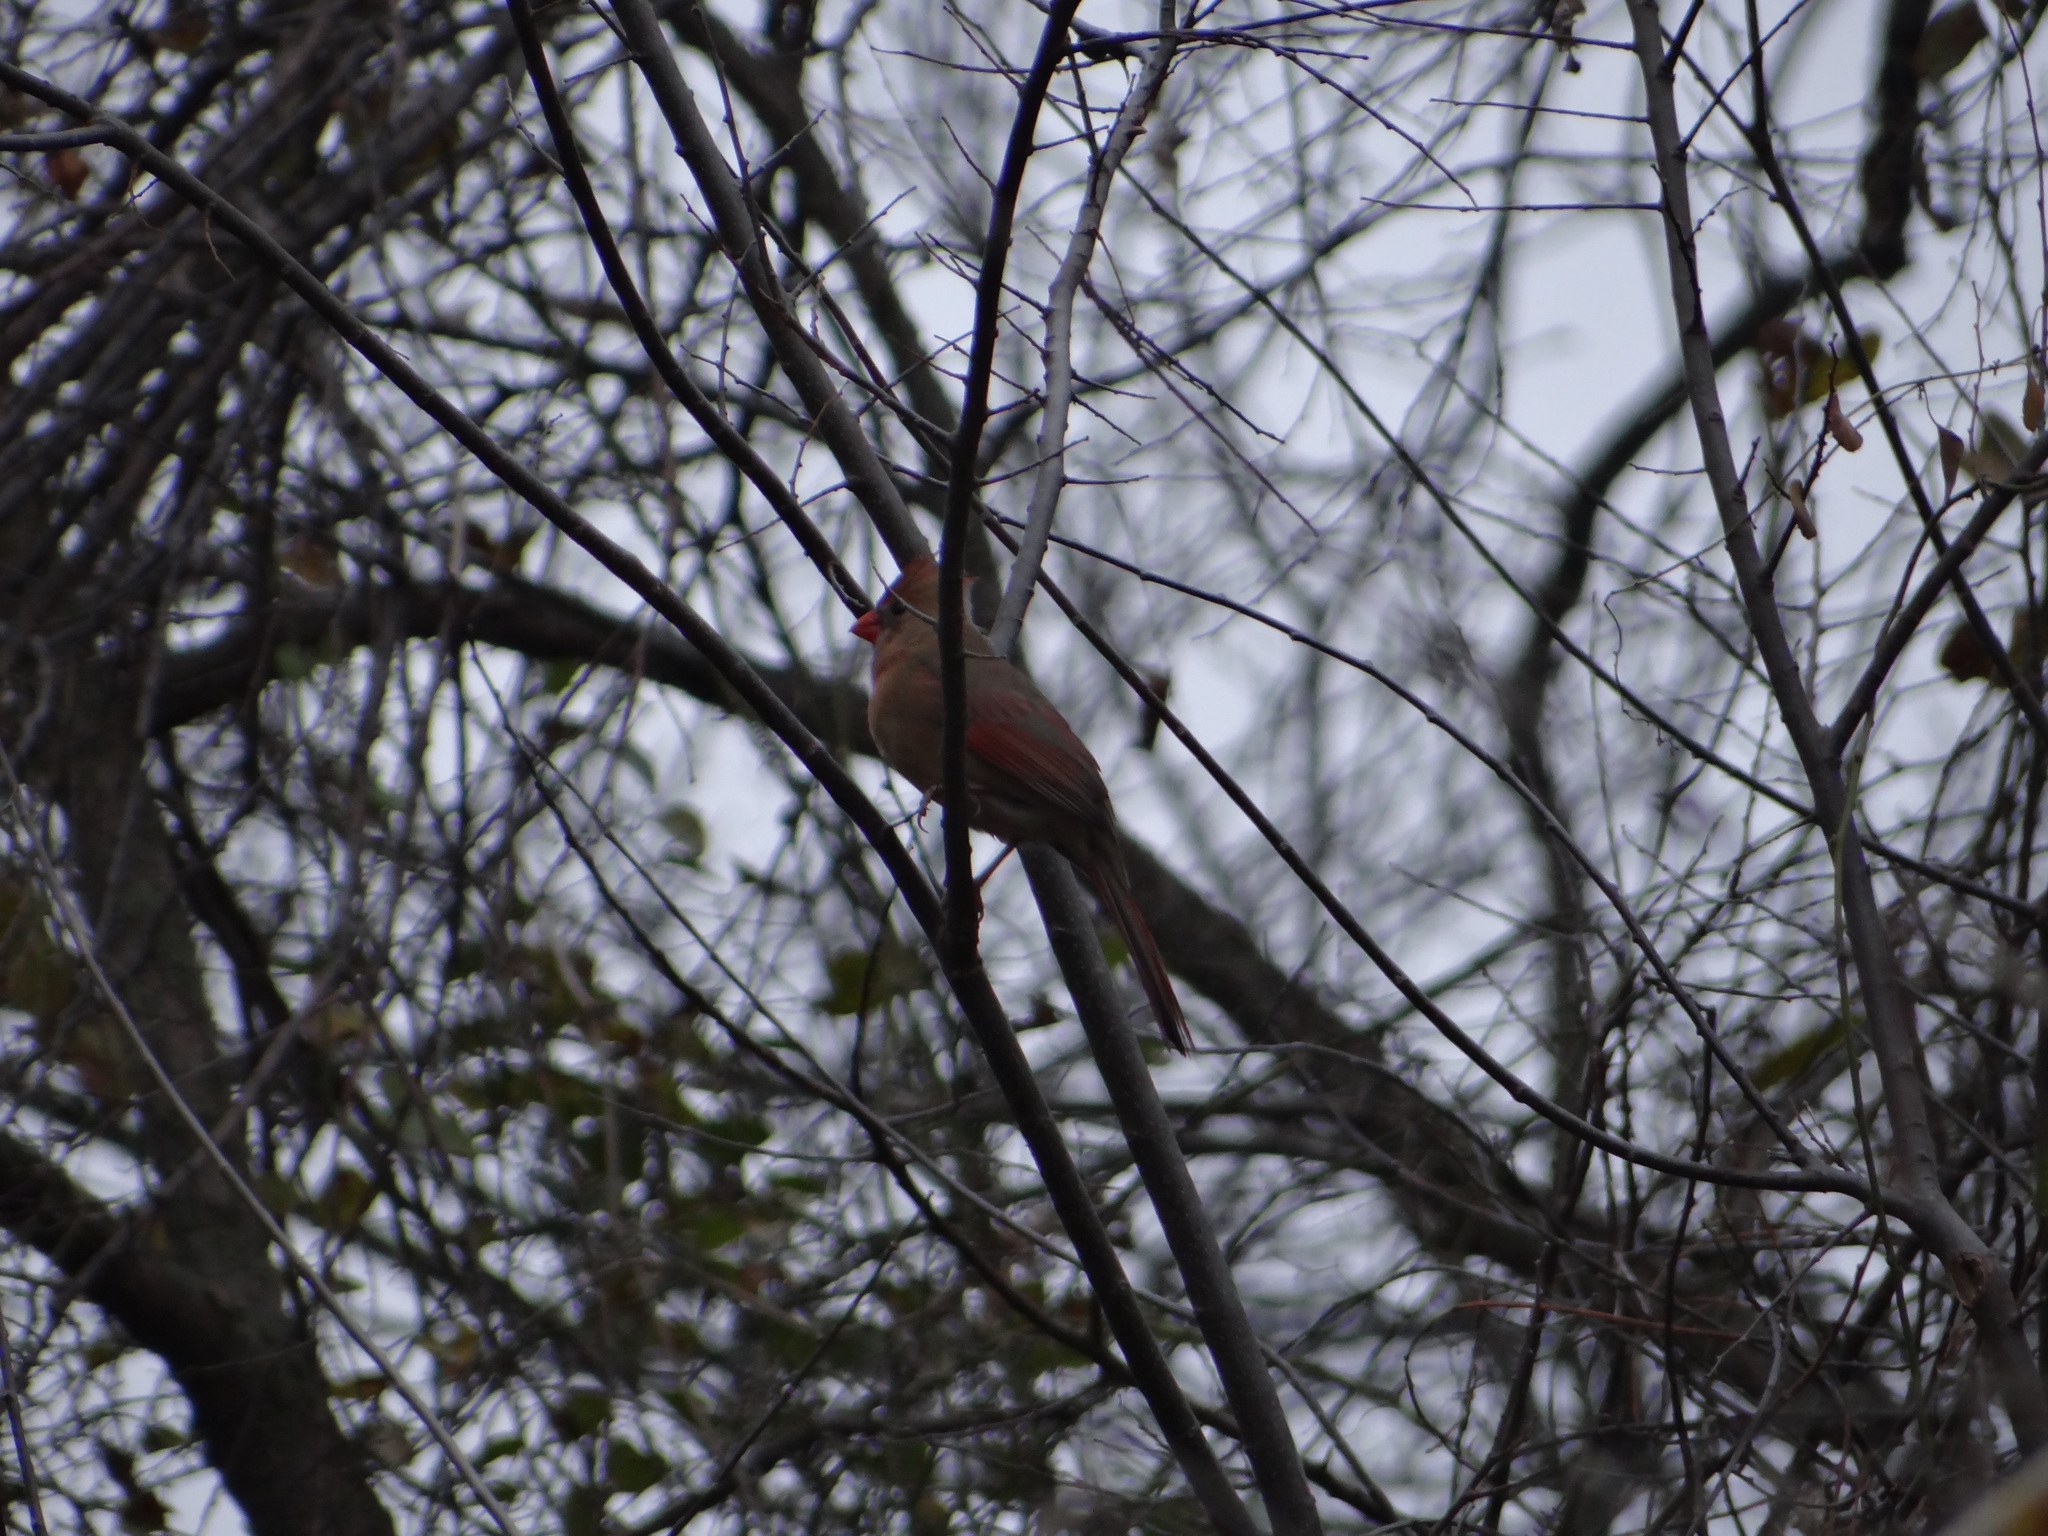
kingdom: Animalia
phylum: Chordata
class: Aves
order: Passeriformes
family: Cardinalidae
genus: Cardinalis
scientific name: Cardinalis cardinalis
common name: Northern cardinal
